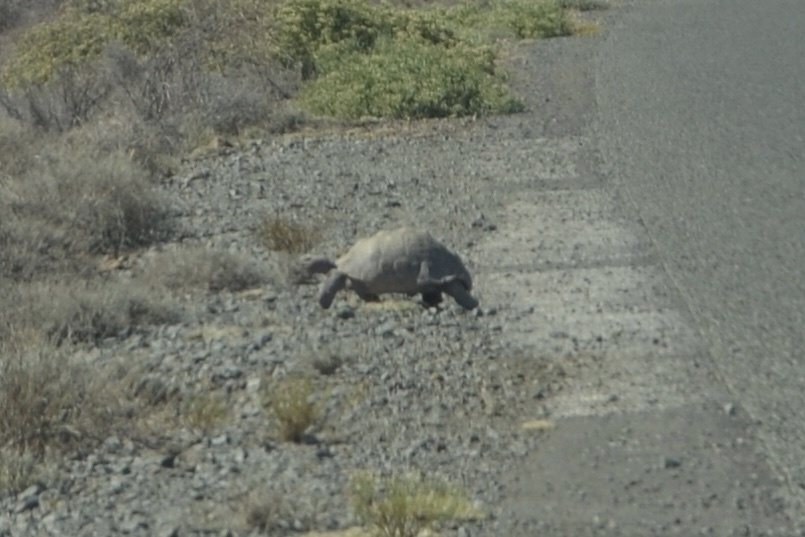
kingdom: Animalia
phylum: Chordata
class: Testudines
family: Testudinidae
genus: Stigmochelys
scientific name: Stigmochelys pardalis
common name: Leopard tortoise
